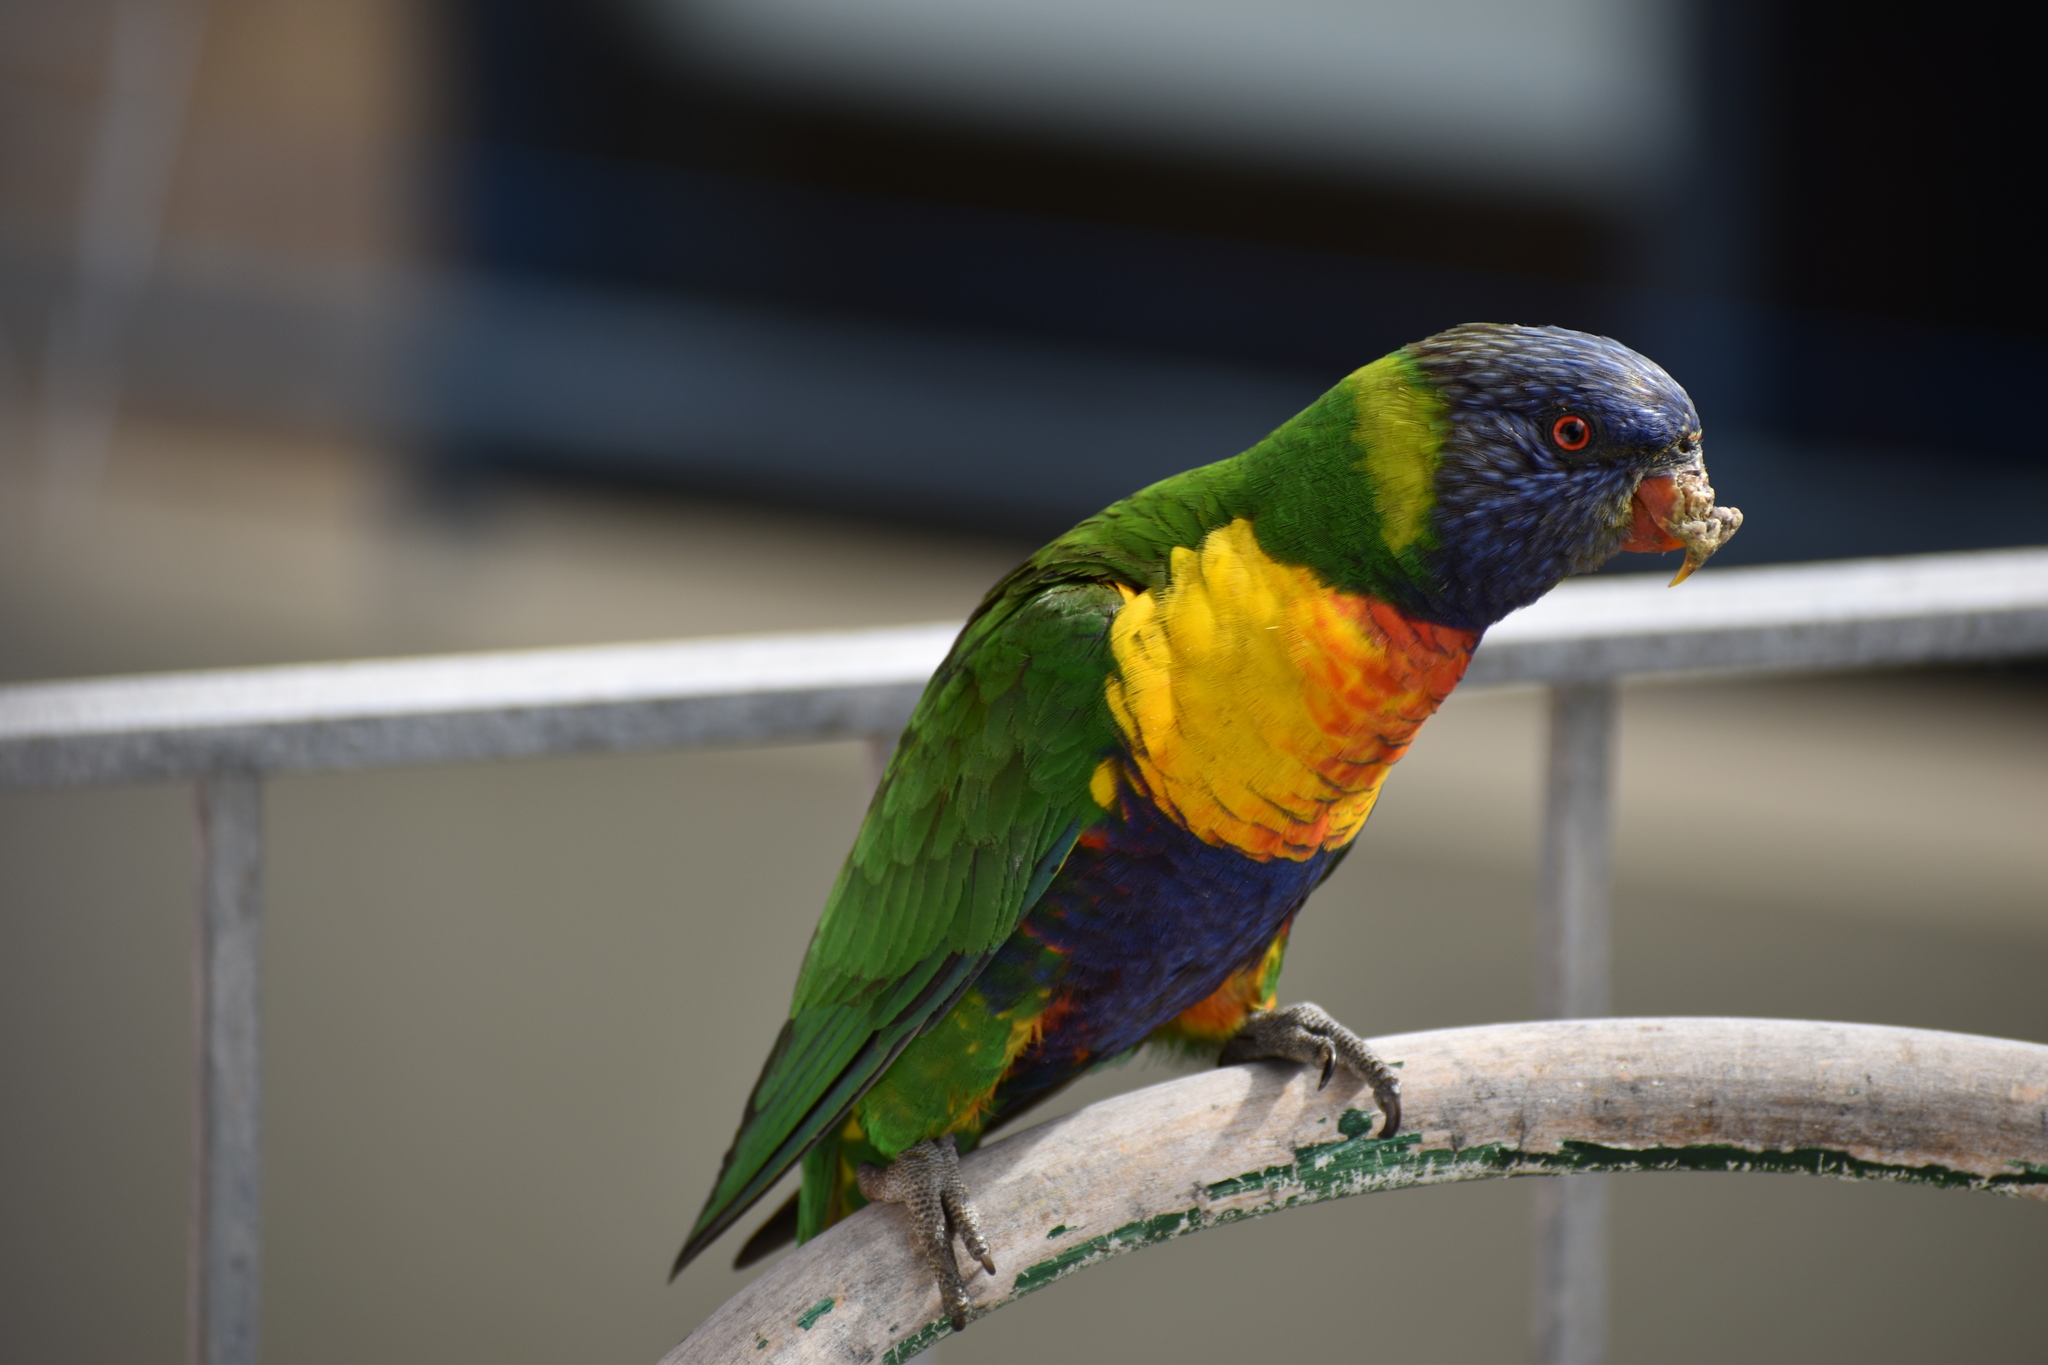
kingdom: Animalia
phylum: Chordata
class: Aves
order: Psittaciformes
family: Psittacidae
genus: Trichoglossus
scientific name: Trichoglossus haematodus
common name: Coconut lorikeet
